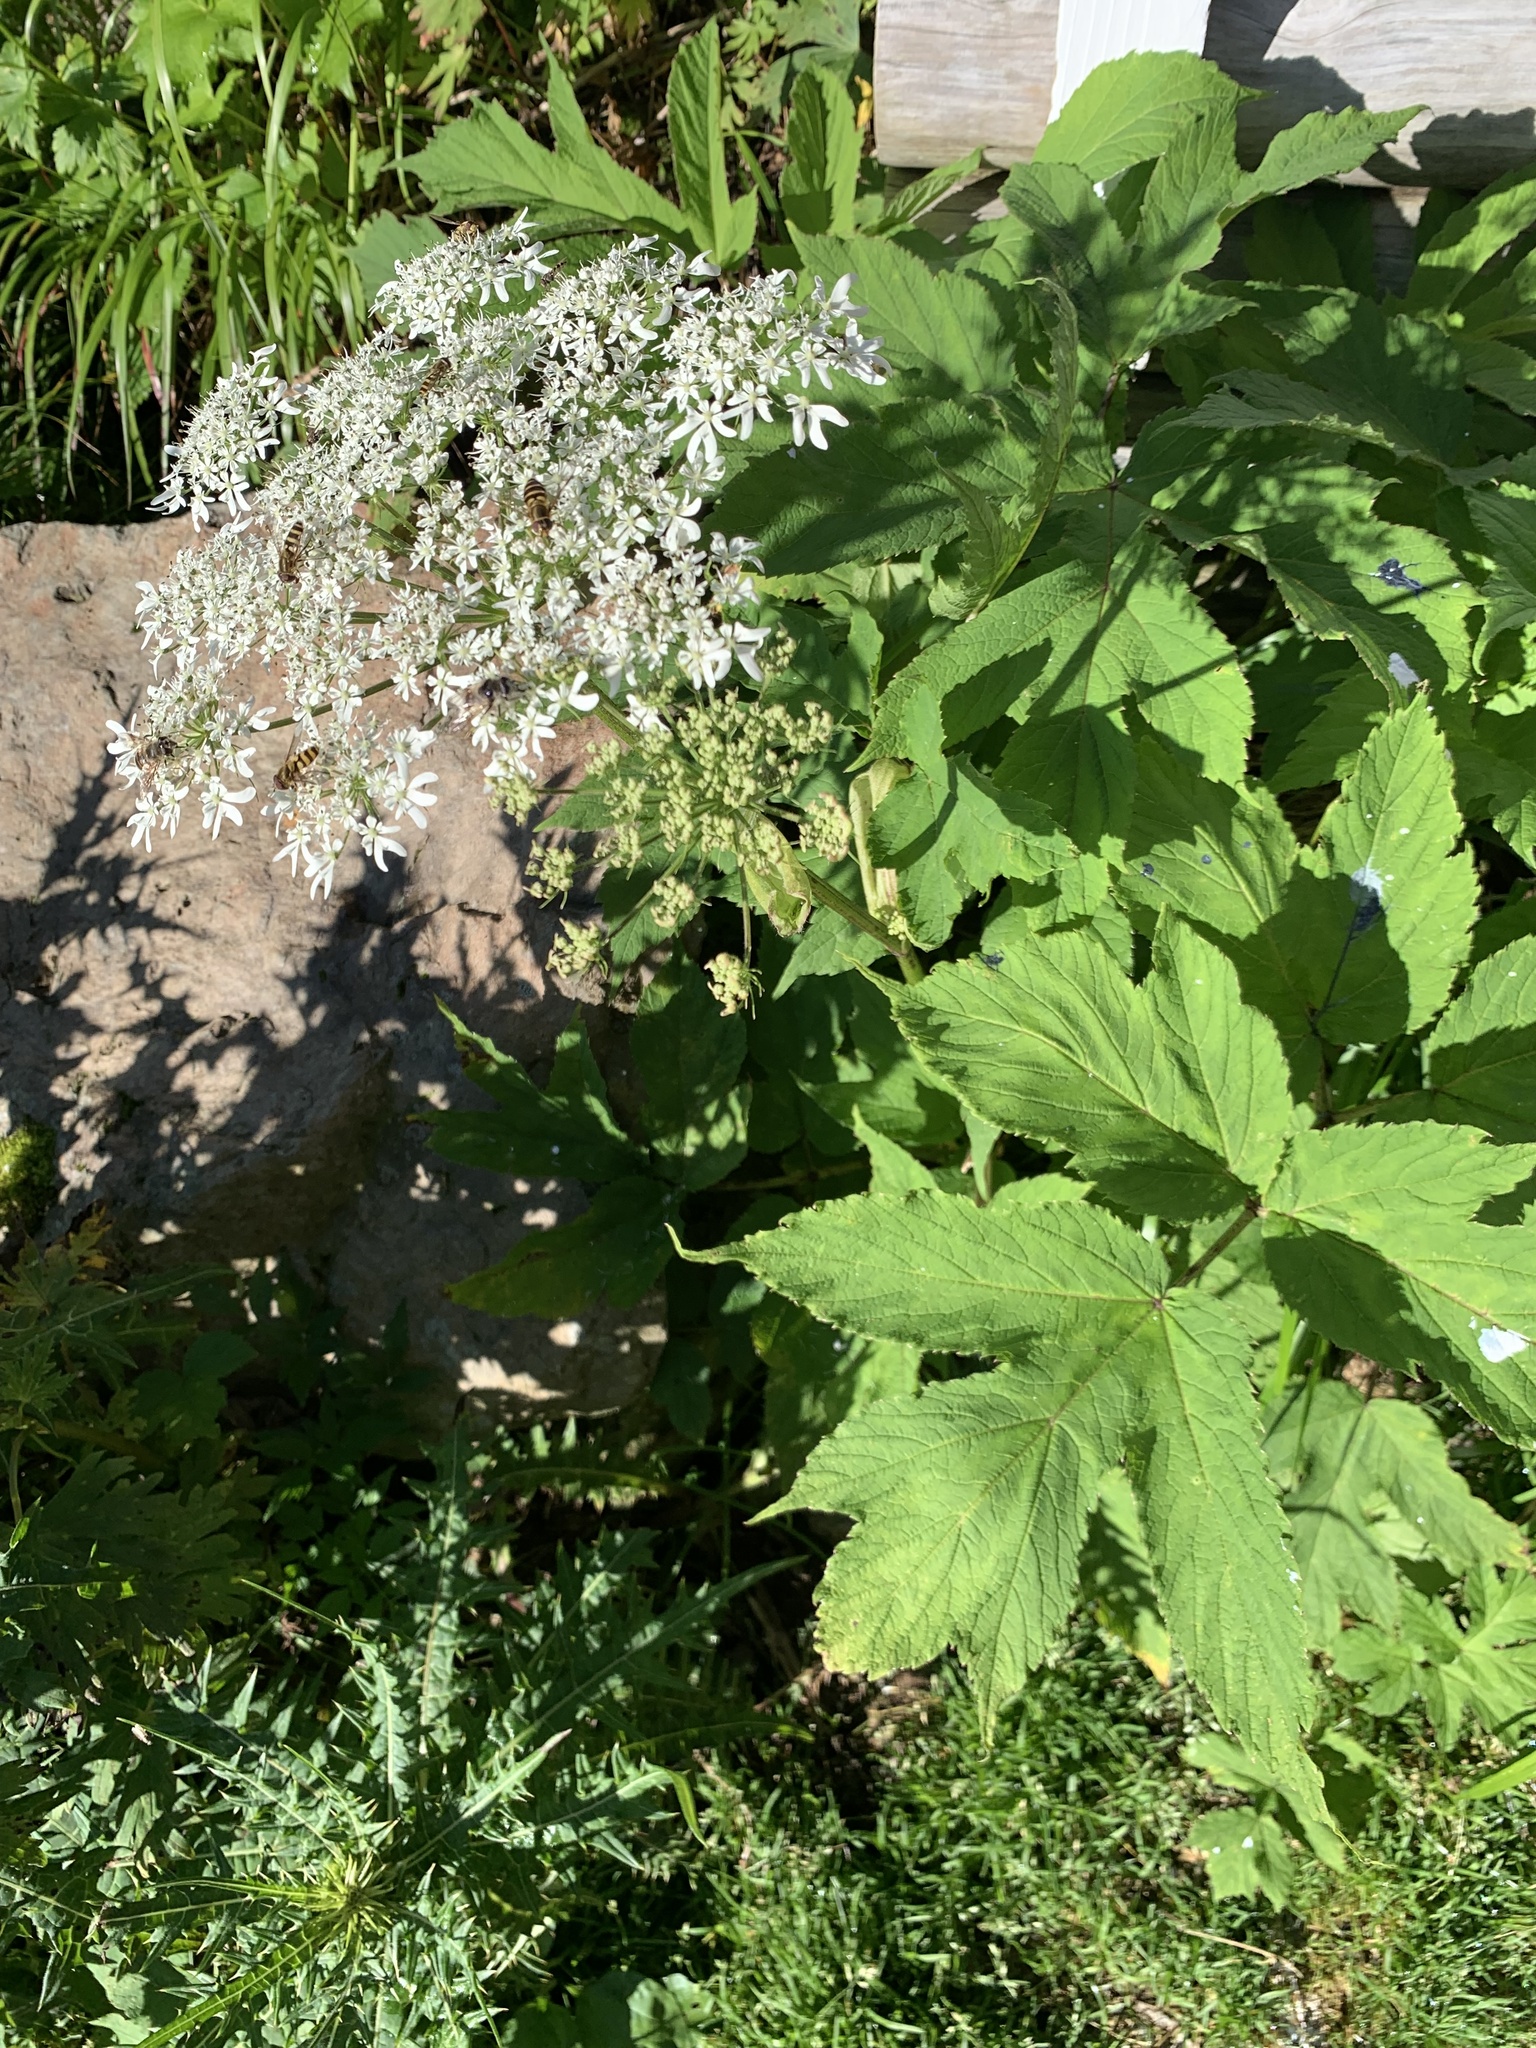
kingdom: Plantae
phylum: Tracheophyta
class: Magnoliopsida
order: Apiales
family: Apiaceae
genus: Heracleum
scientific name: Heracleum maximum
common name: American cow parsnip
